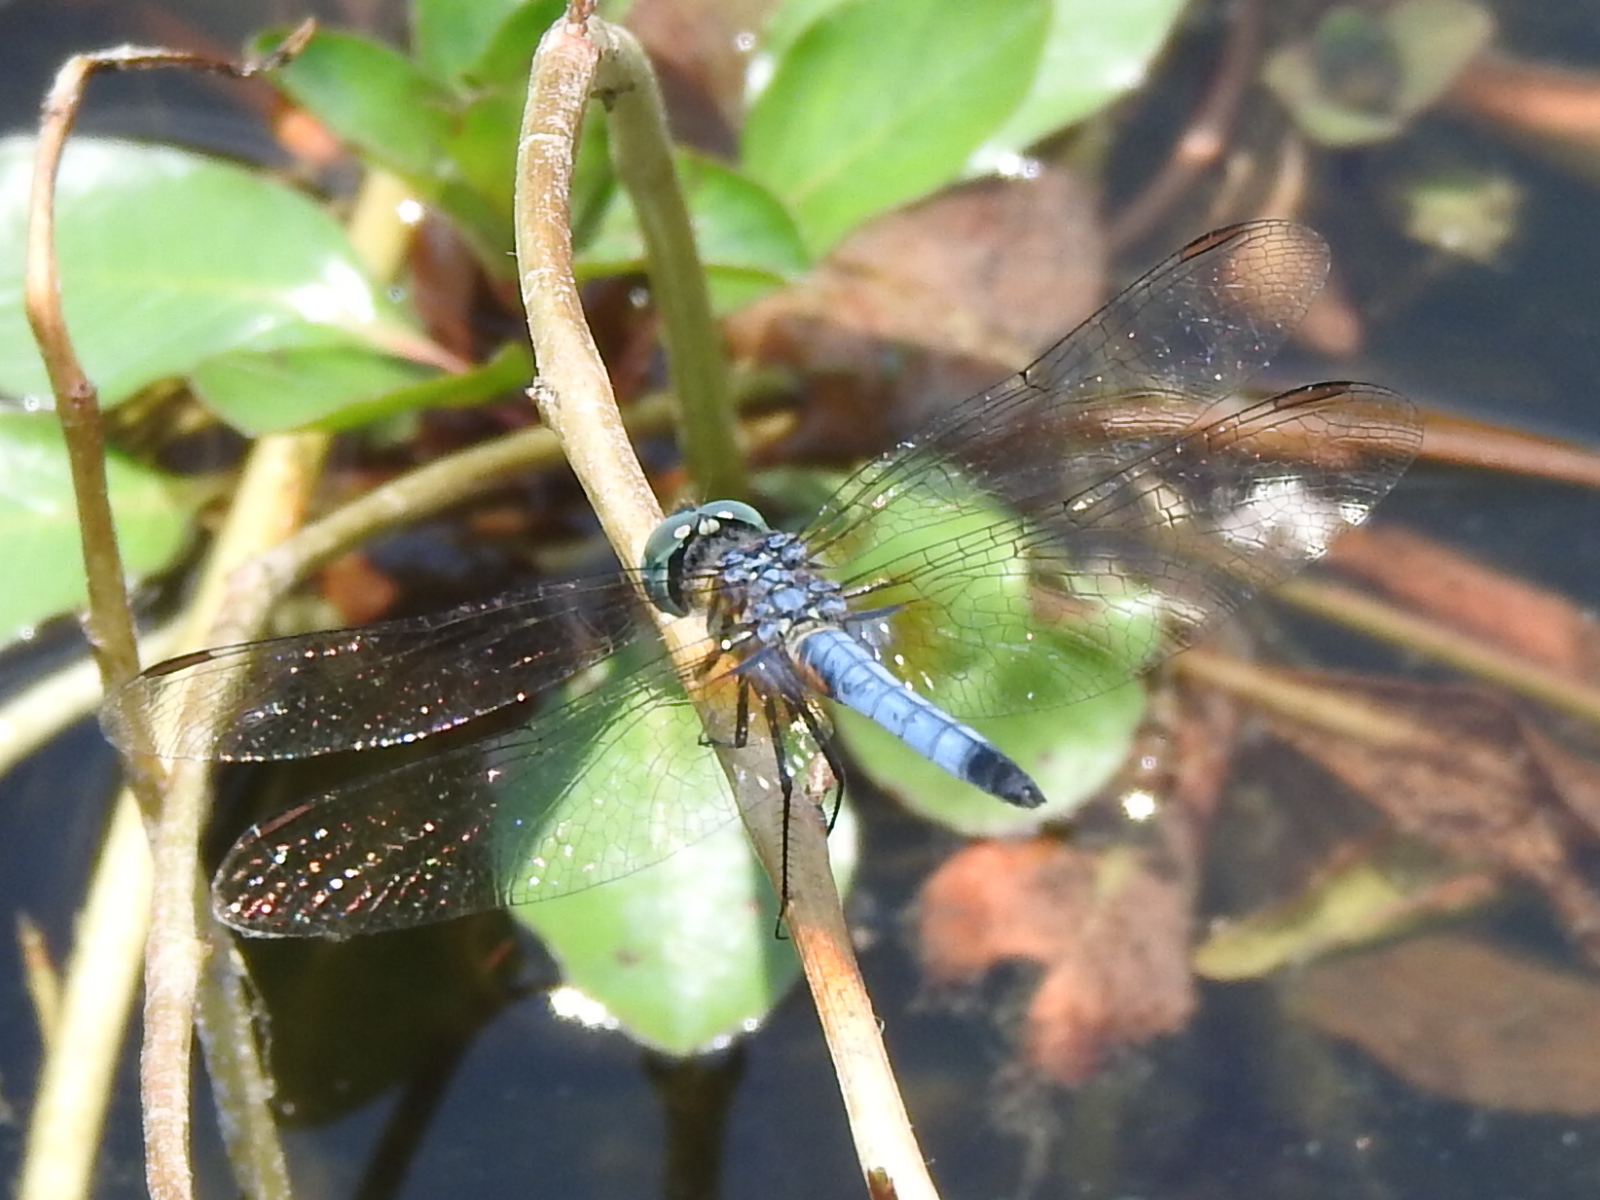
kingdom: Animalia
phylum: Arthropoda
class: Insecta
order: Odonata
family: Libellulidae
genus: Pachydiplax
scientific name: Pachydiplax longipennis
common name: Blue dasher
